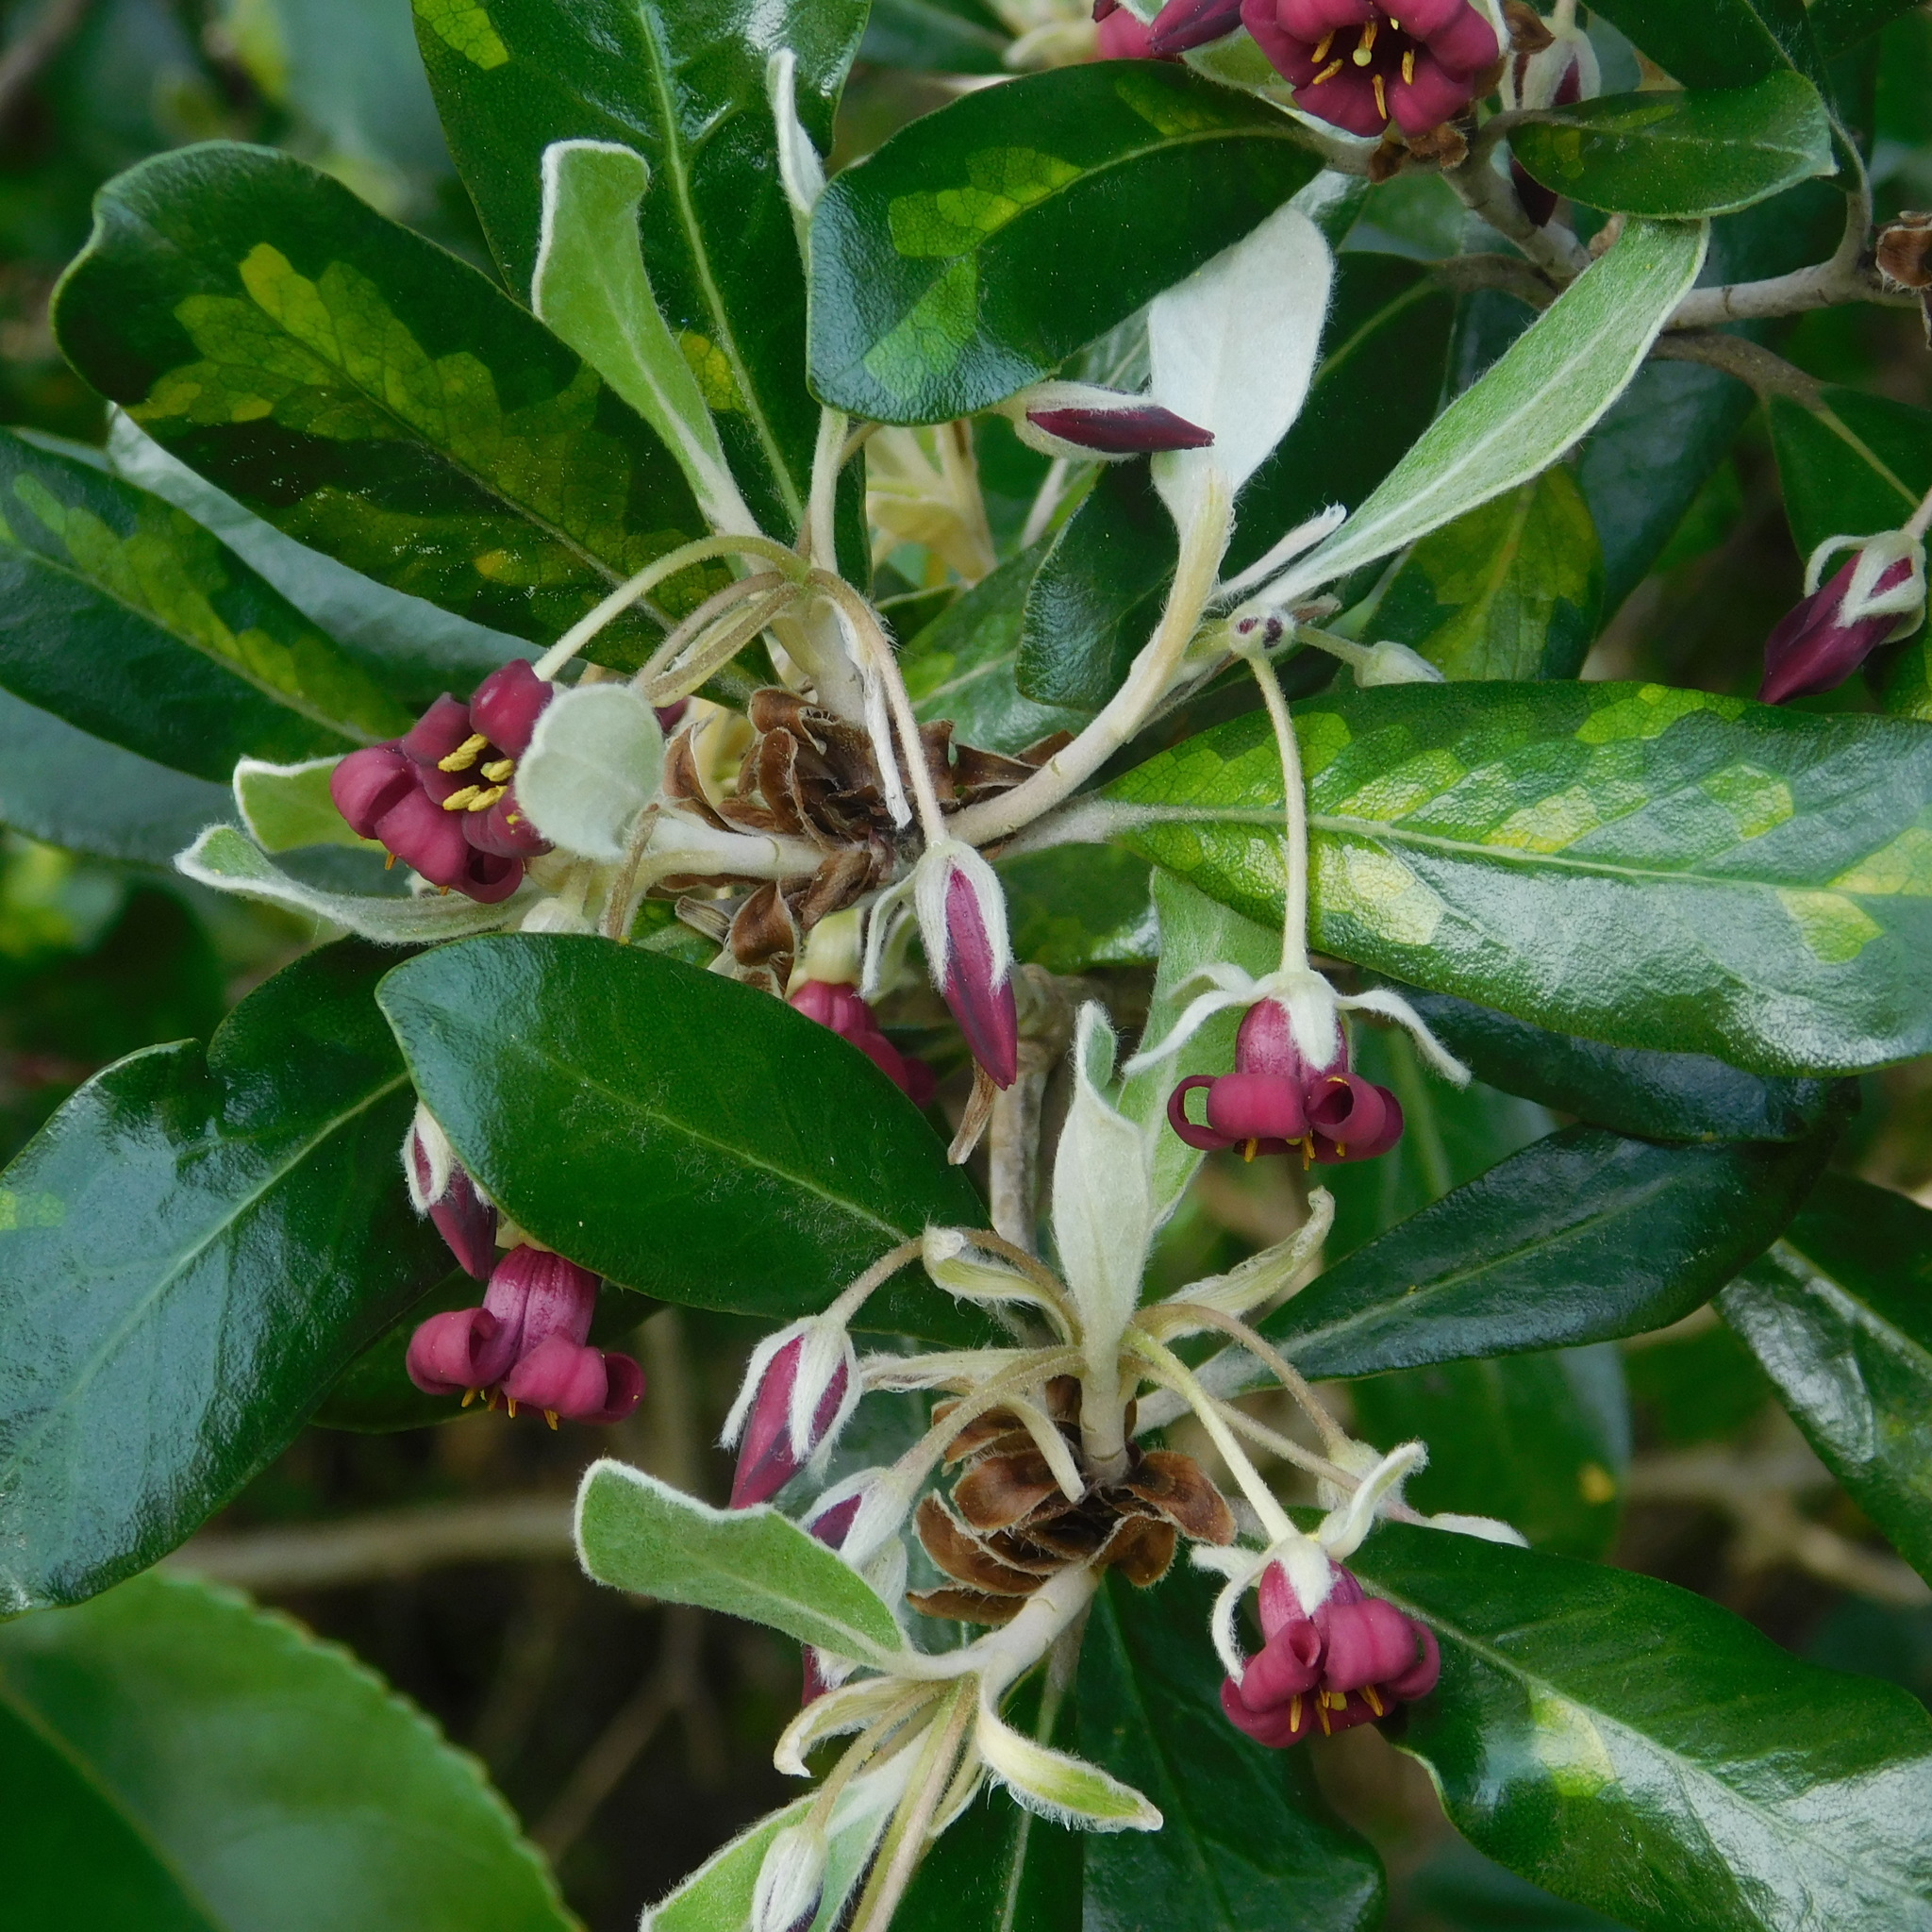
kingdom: Plantae
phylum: Tracheophyta
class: Magnoliopsida
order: Apiales
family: Pittosporaceae
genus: Pittosporum
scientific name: Pittosporum crassifolium
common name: Karo
